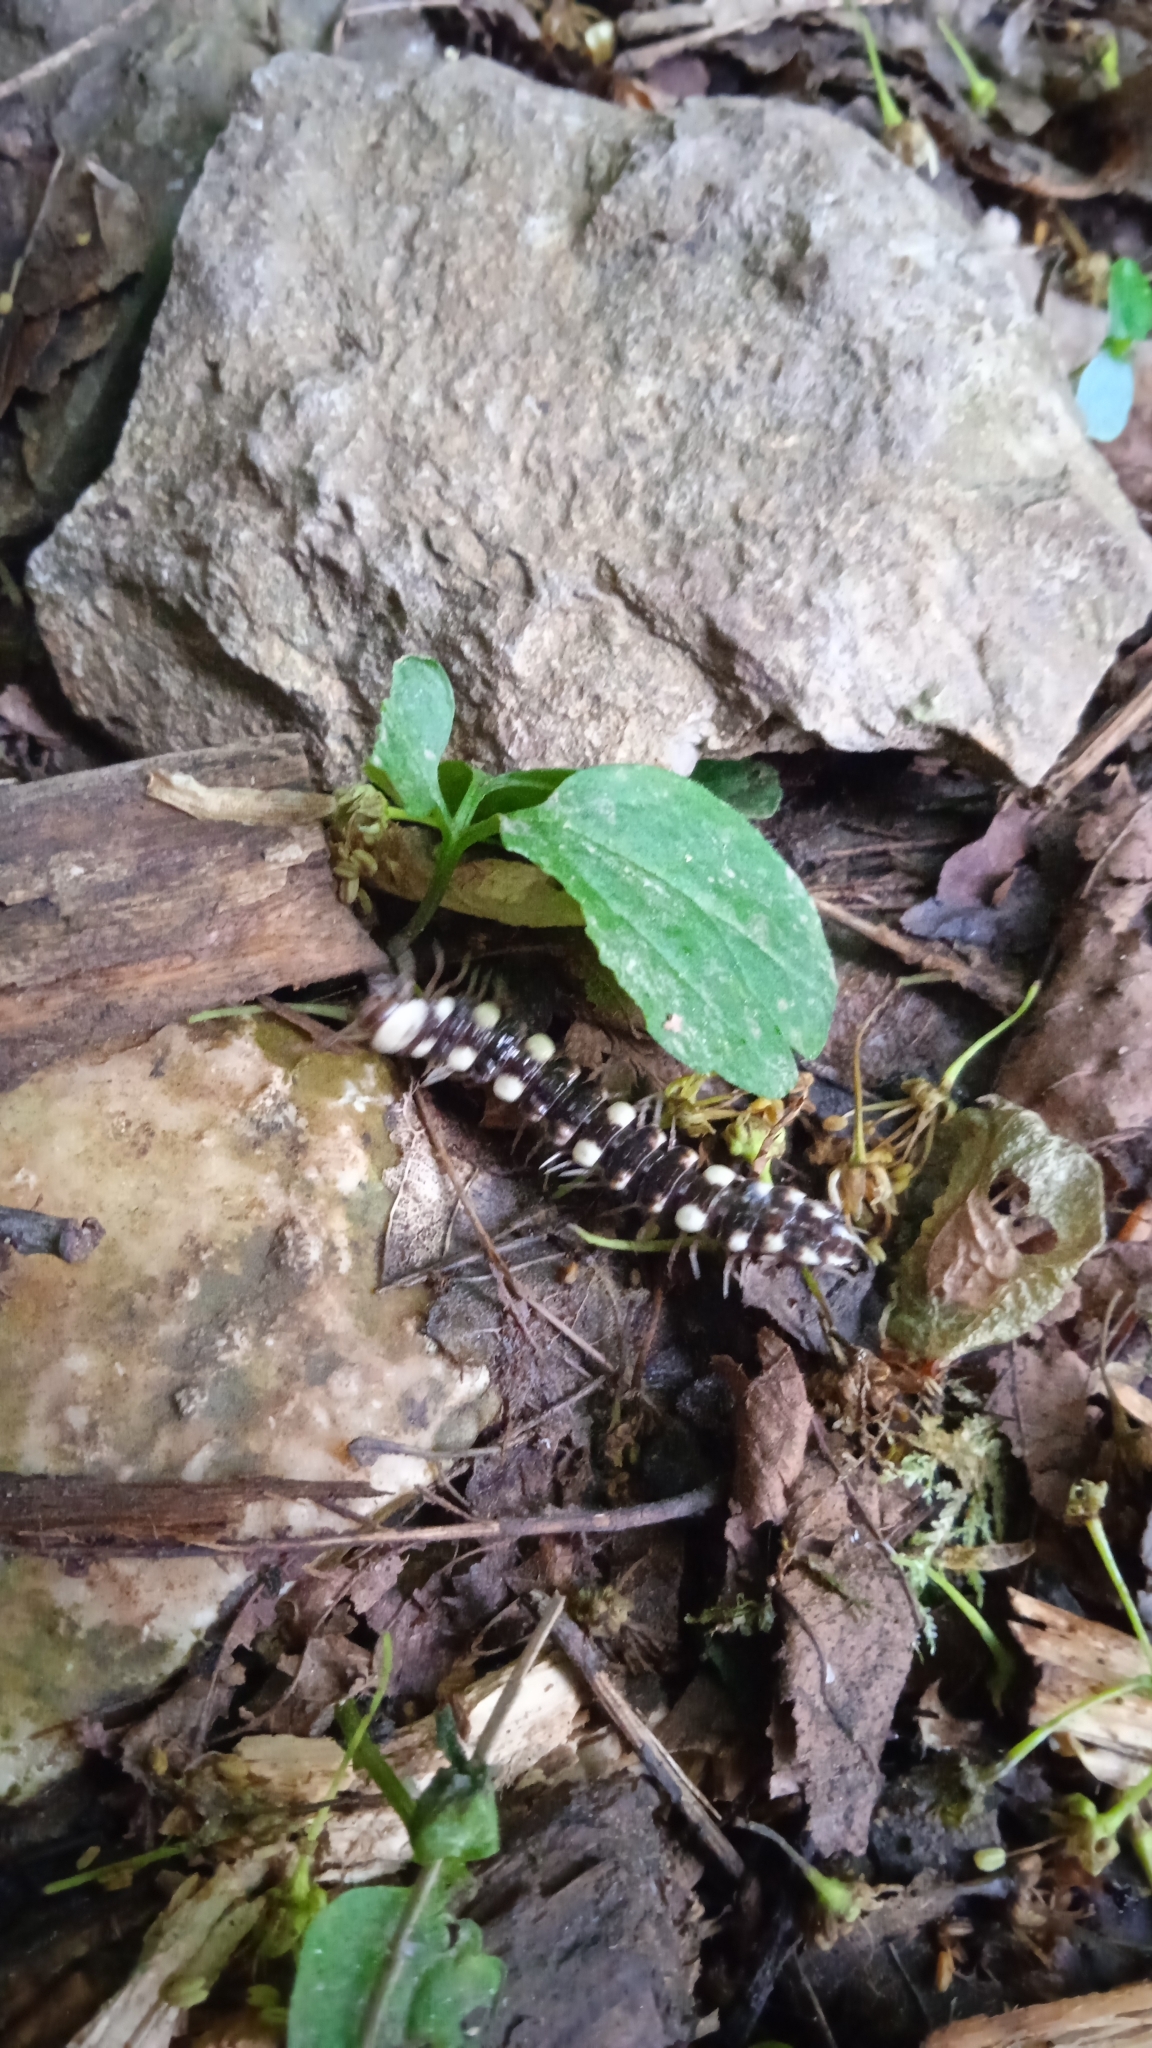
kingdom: Animalia
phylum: Arthropoda
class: Diplopoda
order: Polydesmida
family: Polydesmidae
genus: Polydesmus
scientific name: Polydesmus collaris
